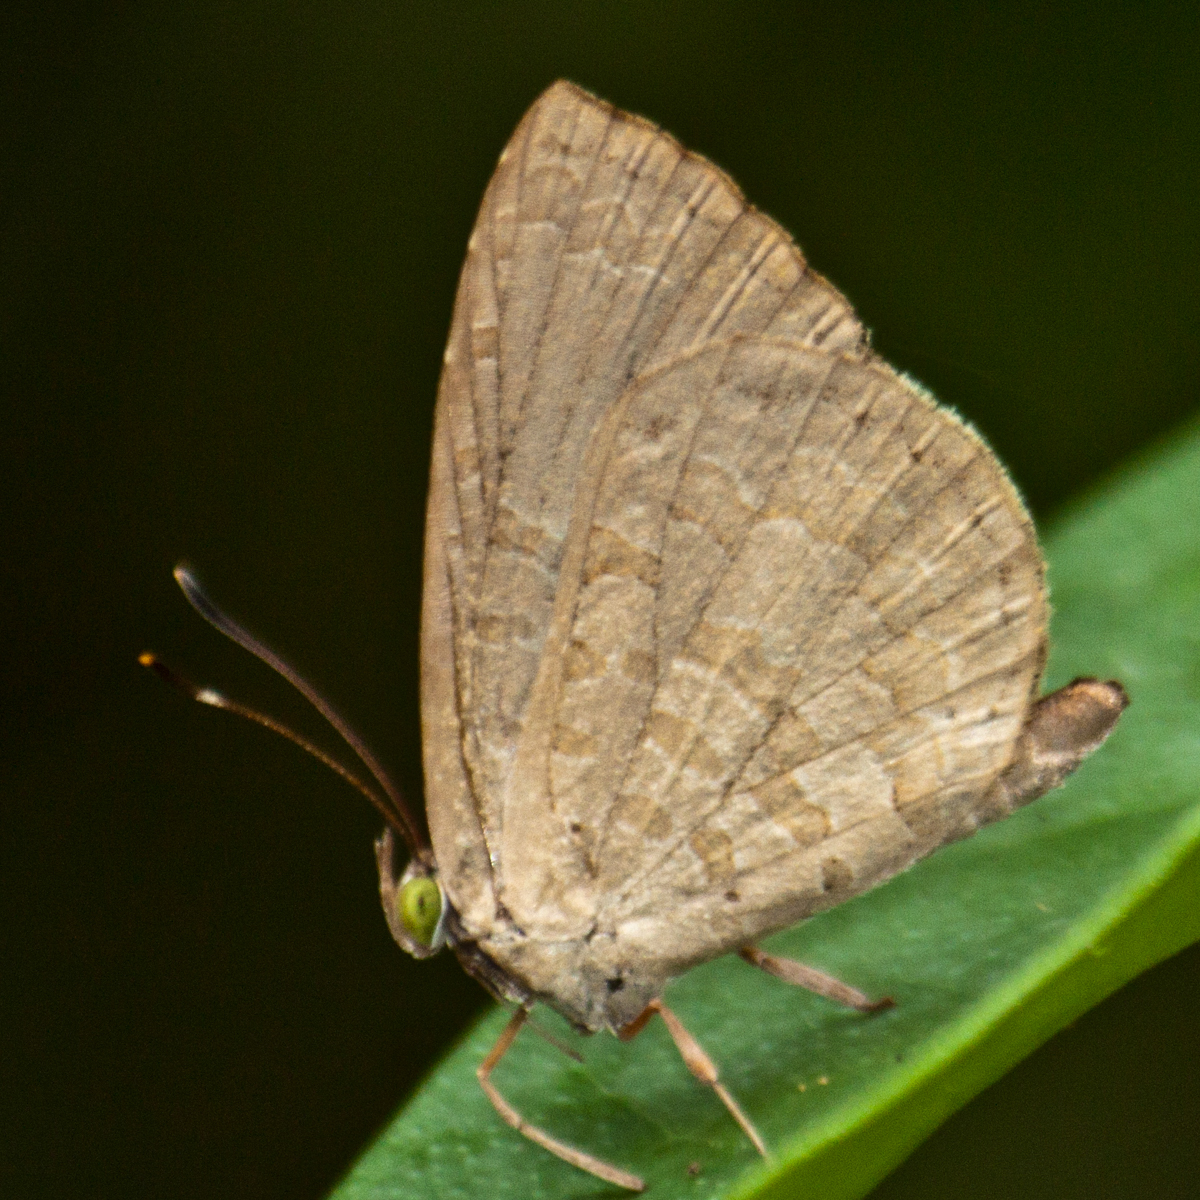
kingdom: Animalia
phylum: Arthropoda
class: Insecta
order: Lepidoptera
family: Lycaenidae
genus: Miletus
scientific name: Miletus chinensis
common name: Common brownie
